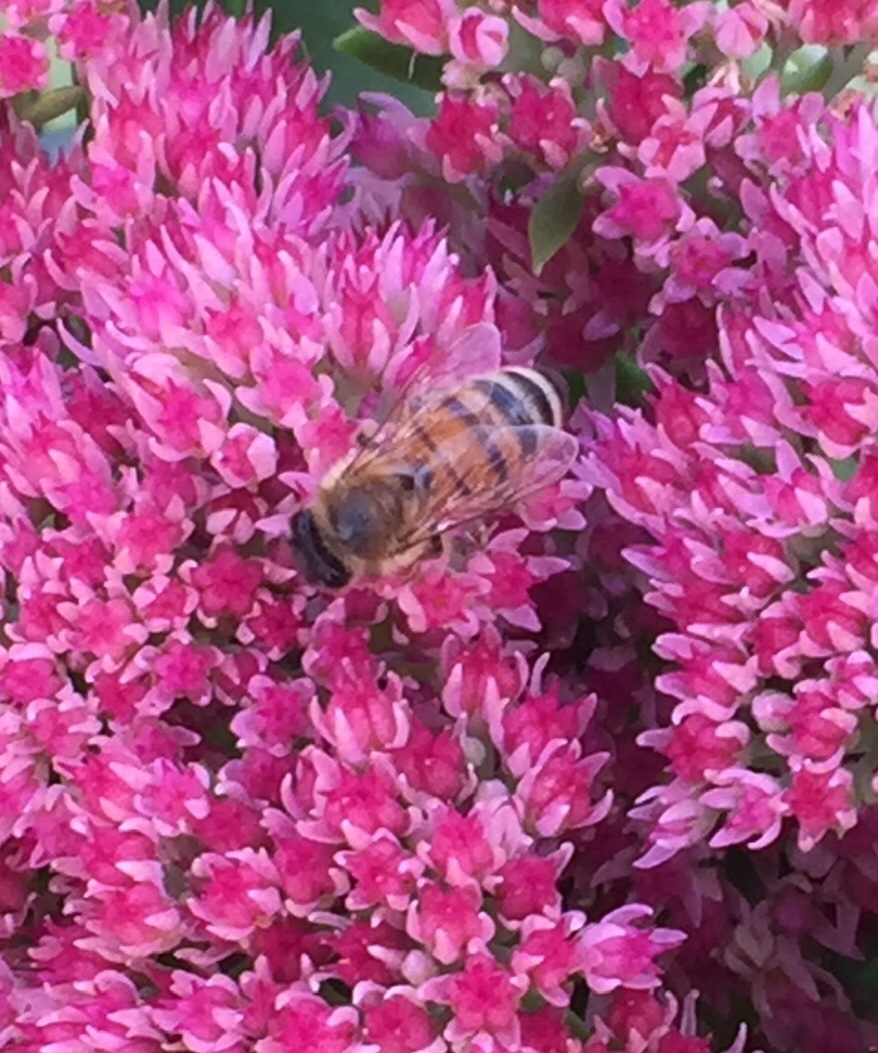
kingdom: Animalia
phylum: Arthropoda
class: Insecta
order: Hymenoptera
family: Apidae
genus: Apis
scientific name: Apis mellifera
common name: Honey bee
